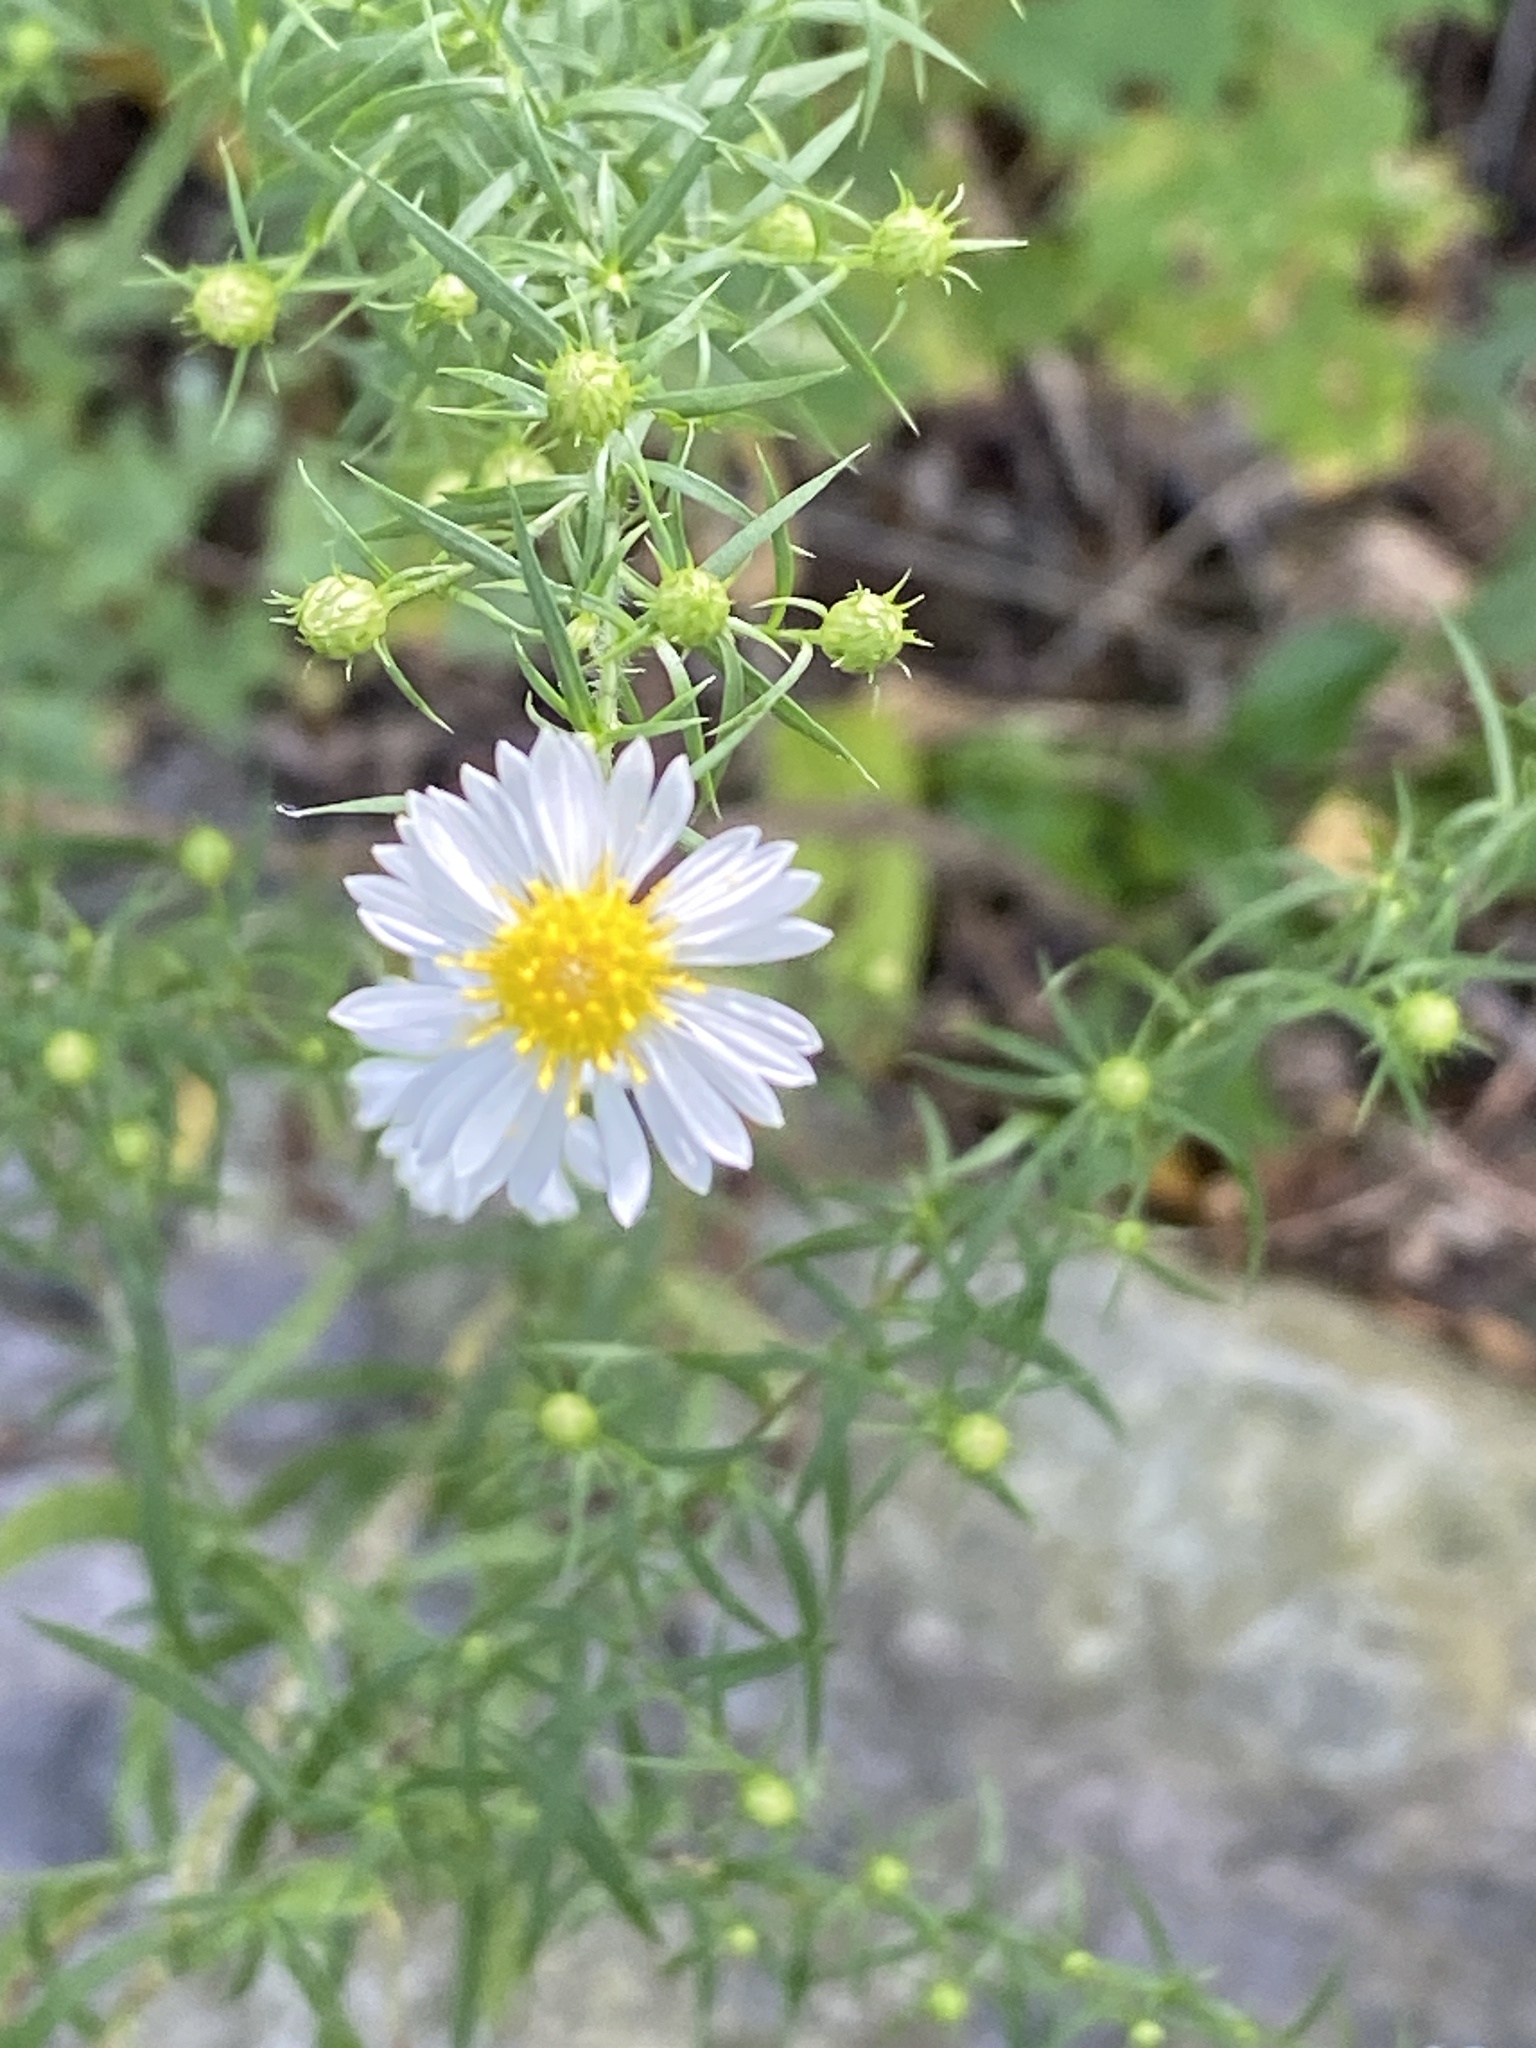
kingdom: Plantae
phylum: Tracheophyta
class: Magnoliopsida
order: Asterales
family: Asteraceae
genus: Symphyotrichum
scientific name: Symphyotrichum pilosum
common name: Awl aster
